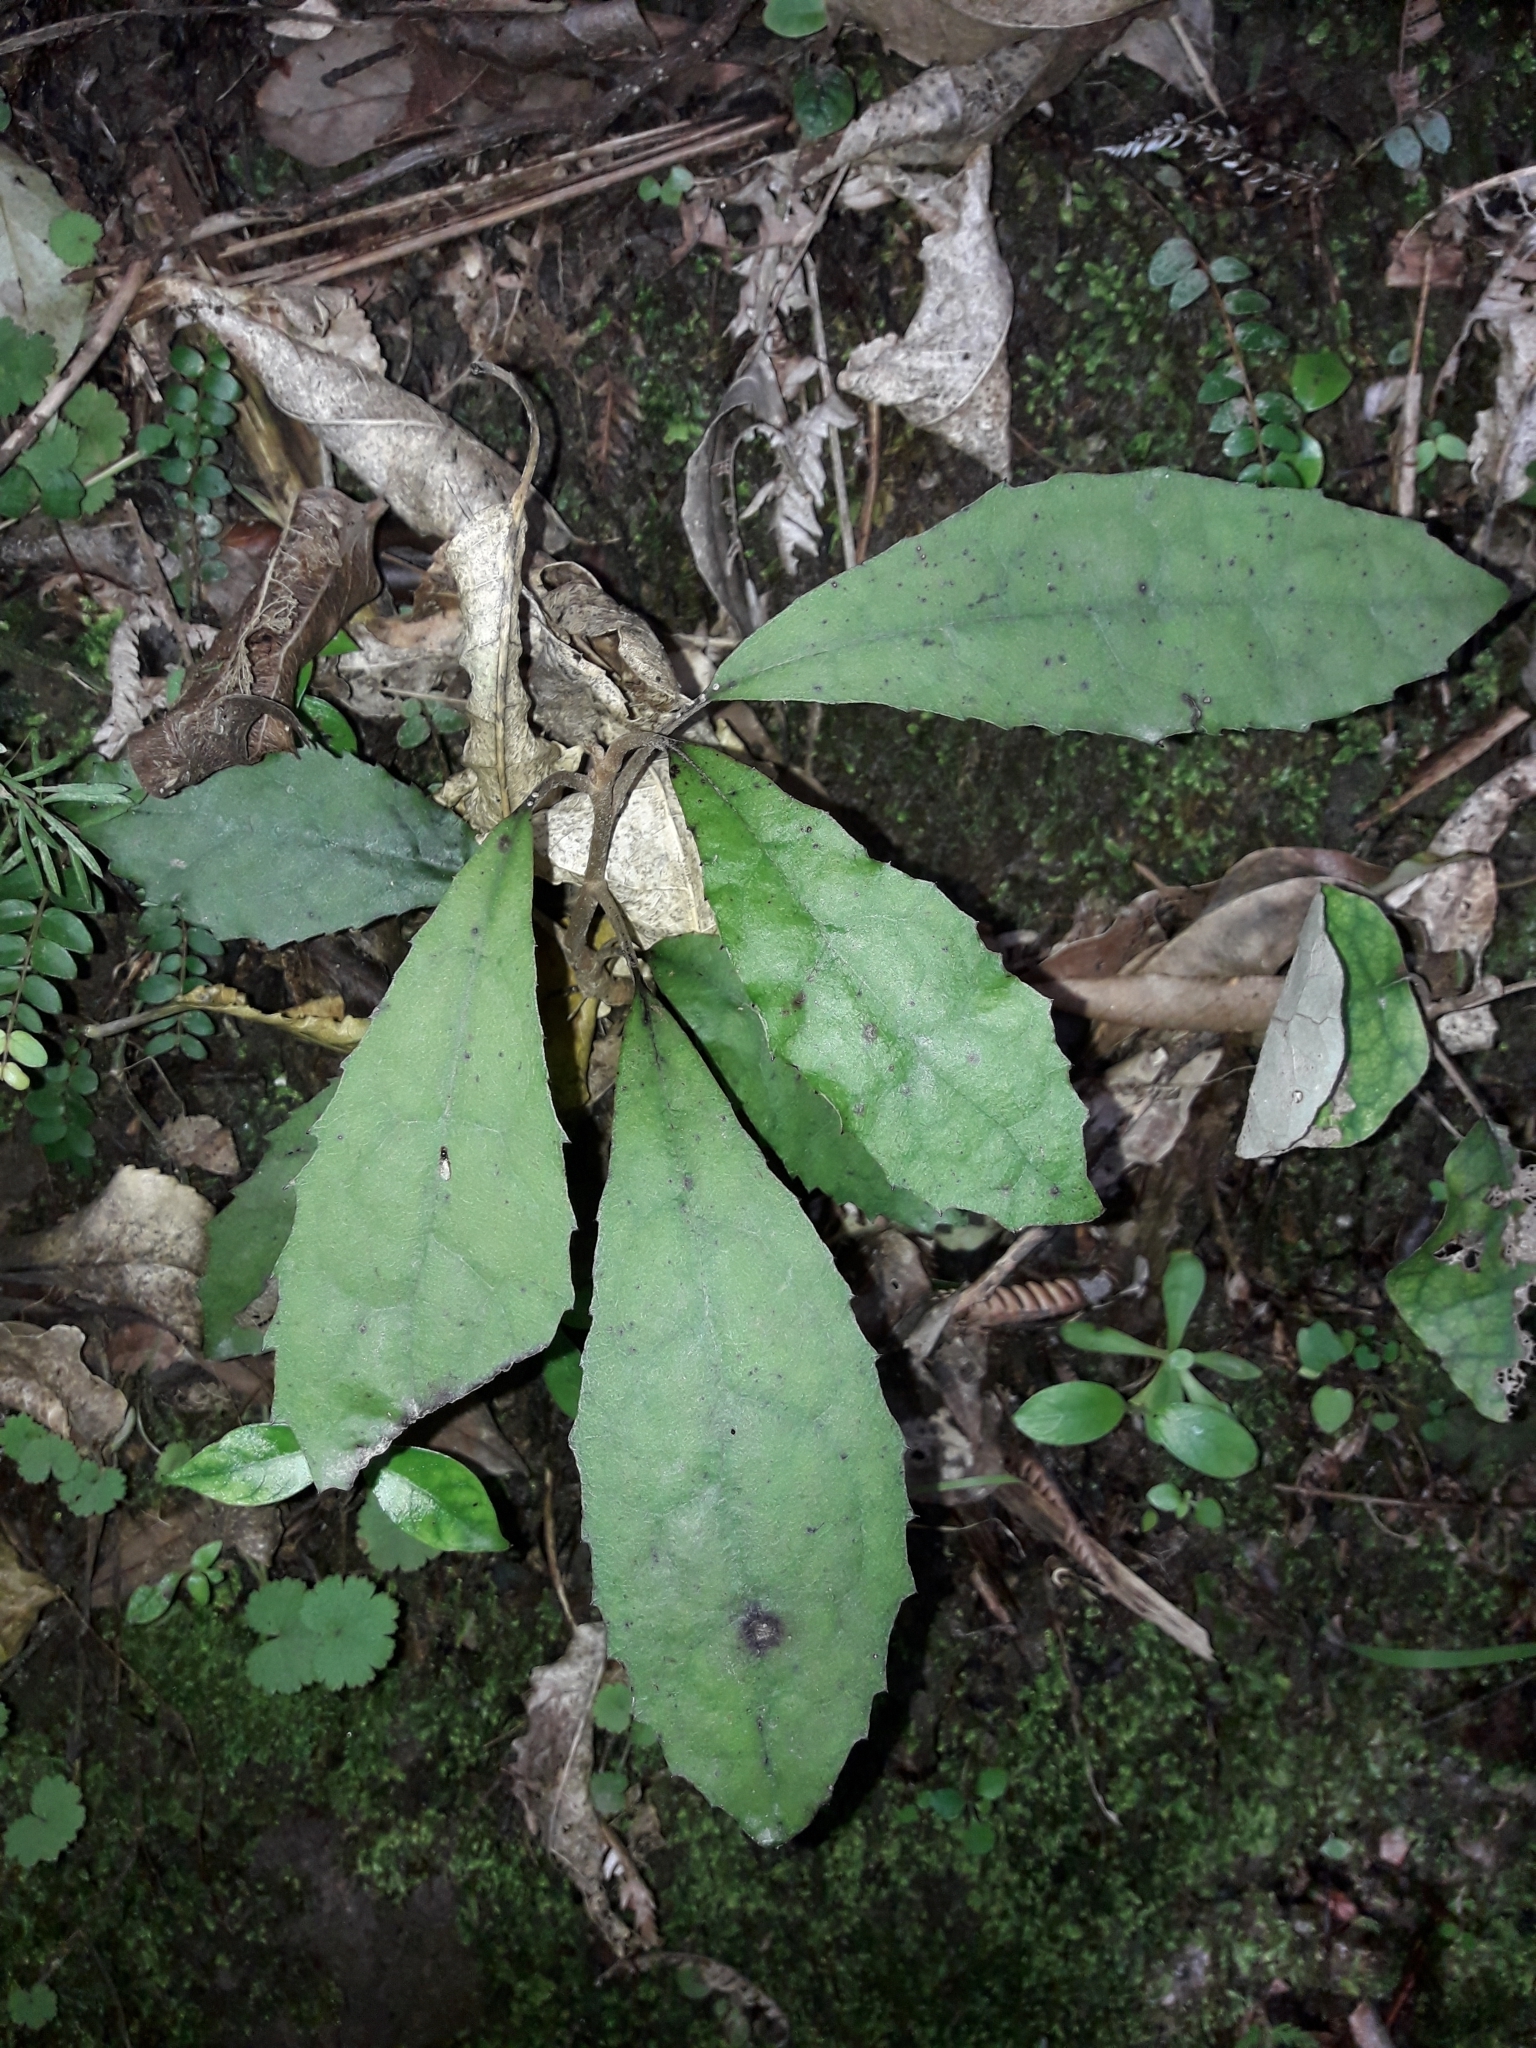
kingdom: Plantae
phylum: Tracheophyta
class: Magnoliopsida
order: Asterales
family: Asteraceae
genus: Olearia
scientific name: Olearia rani
